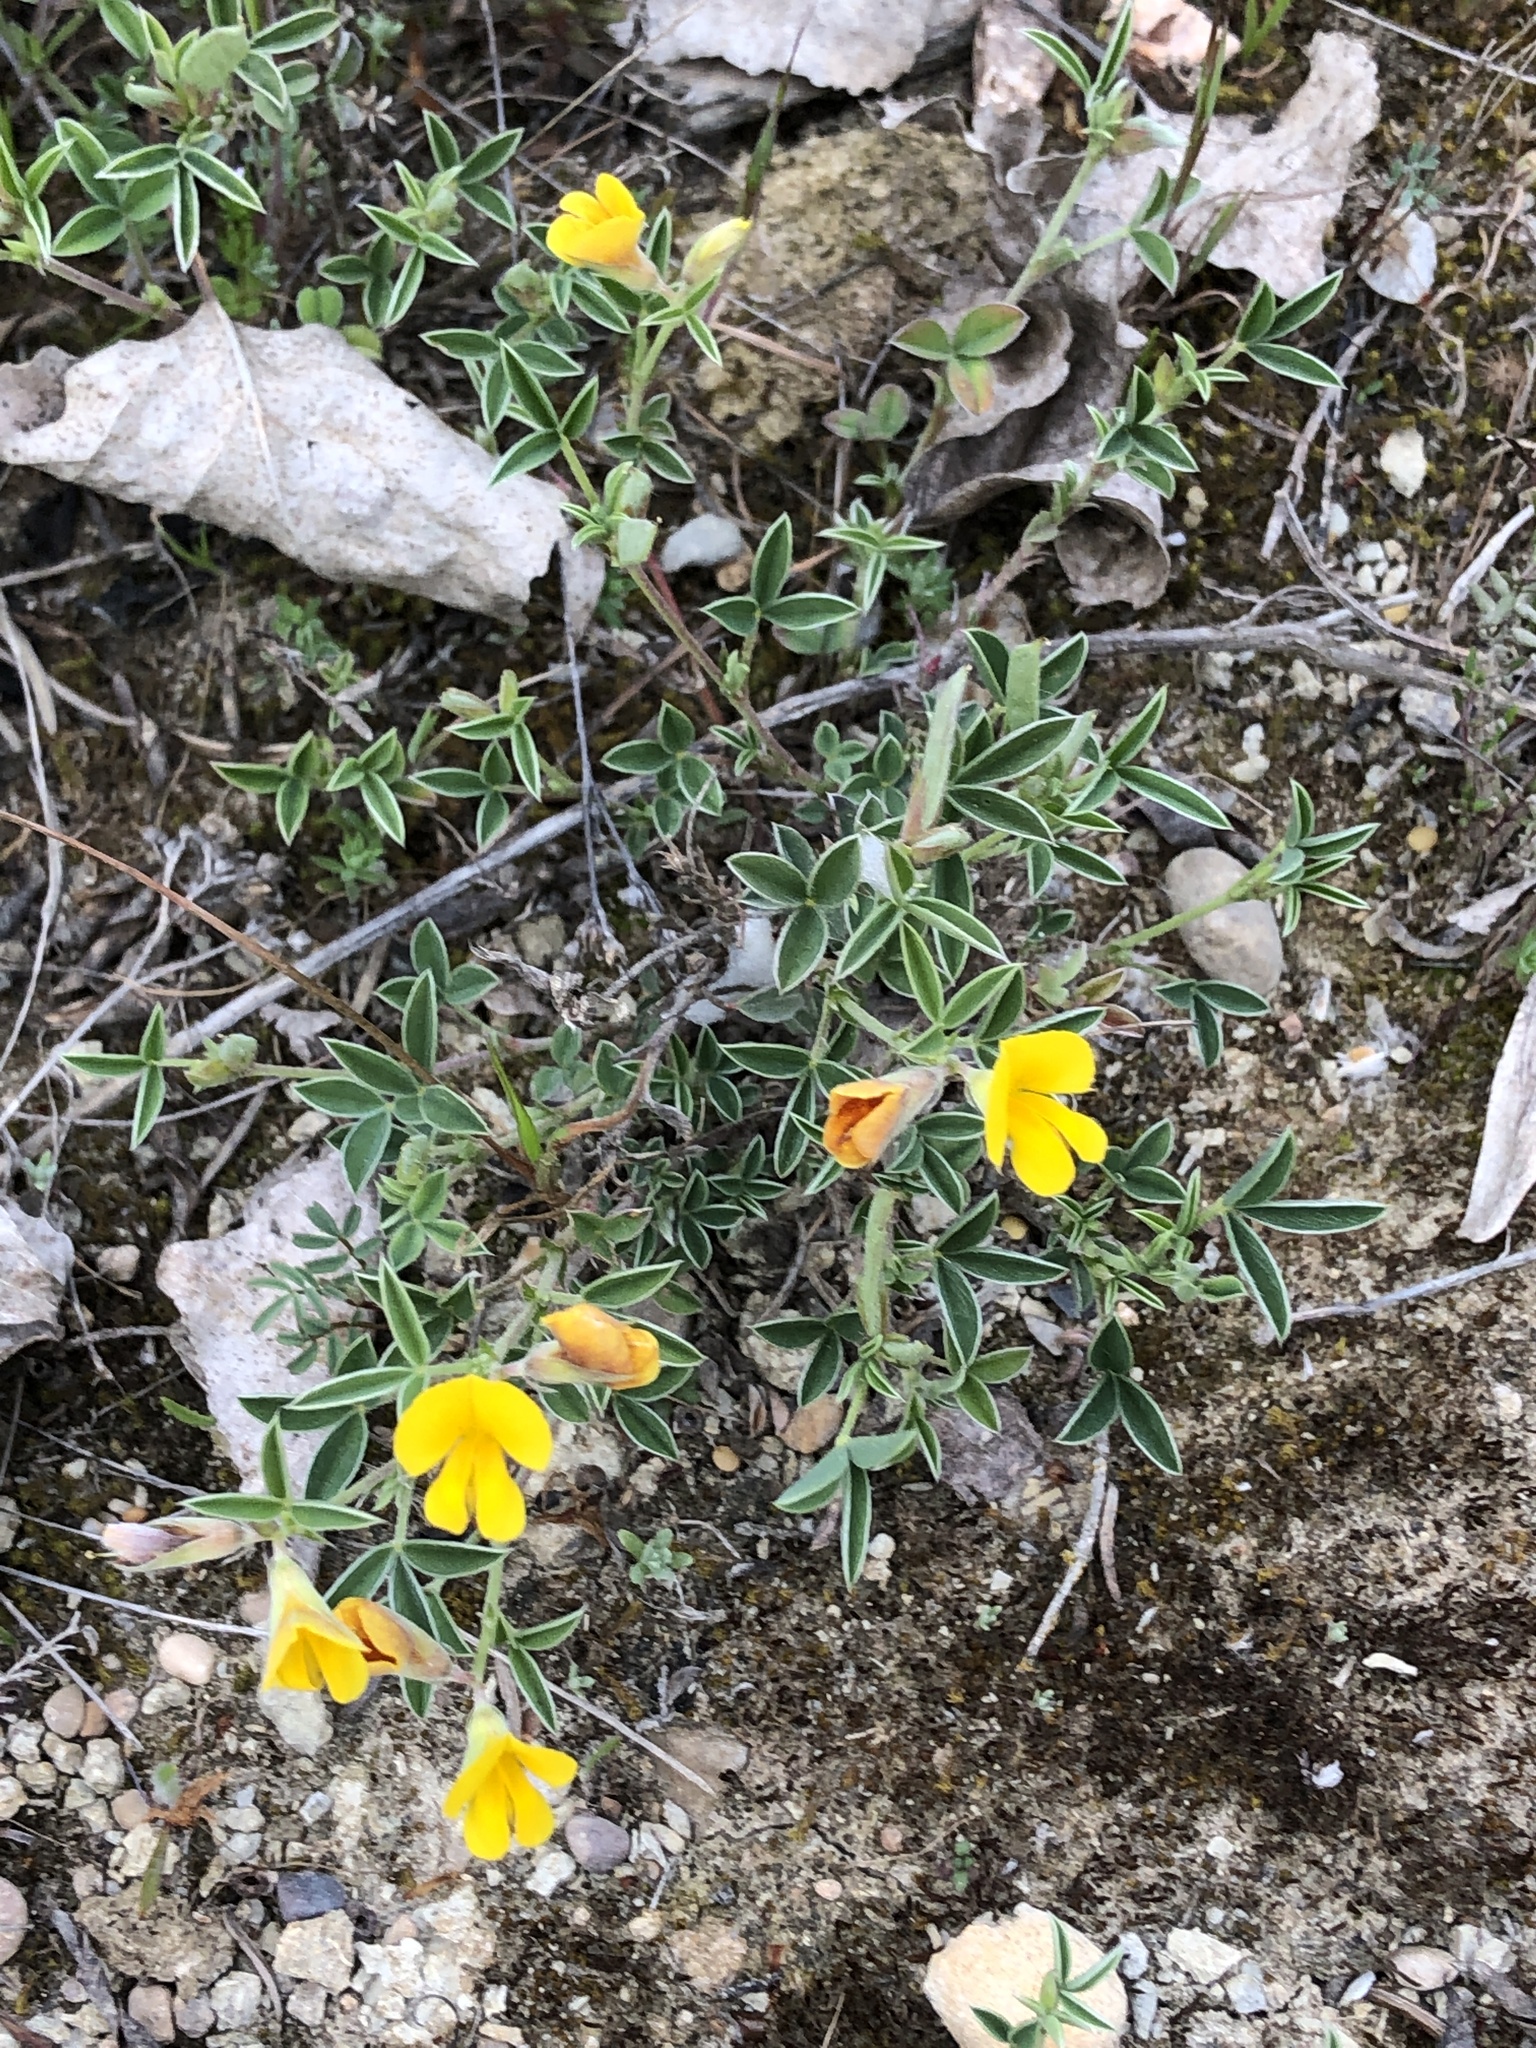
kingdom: Plantae
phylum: Tracheophyta
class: Magnoliopsida
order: Fabales
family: Fabaceae
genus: Argyrolobium
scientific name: Argyrolobium zanonii
